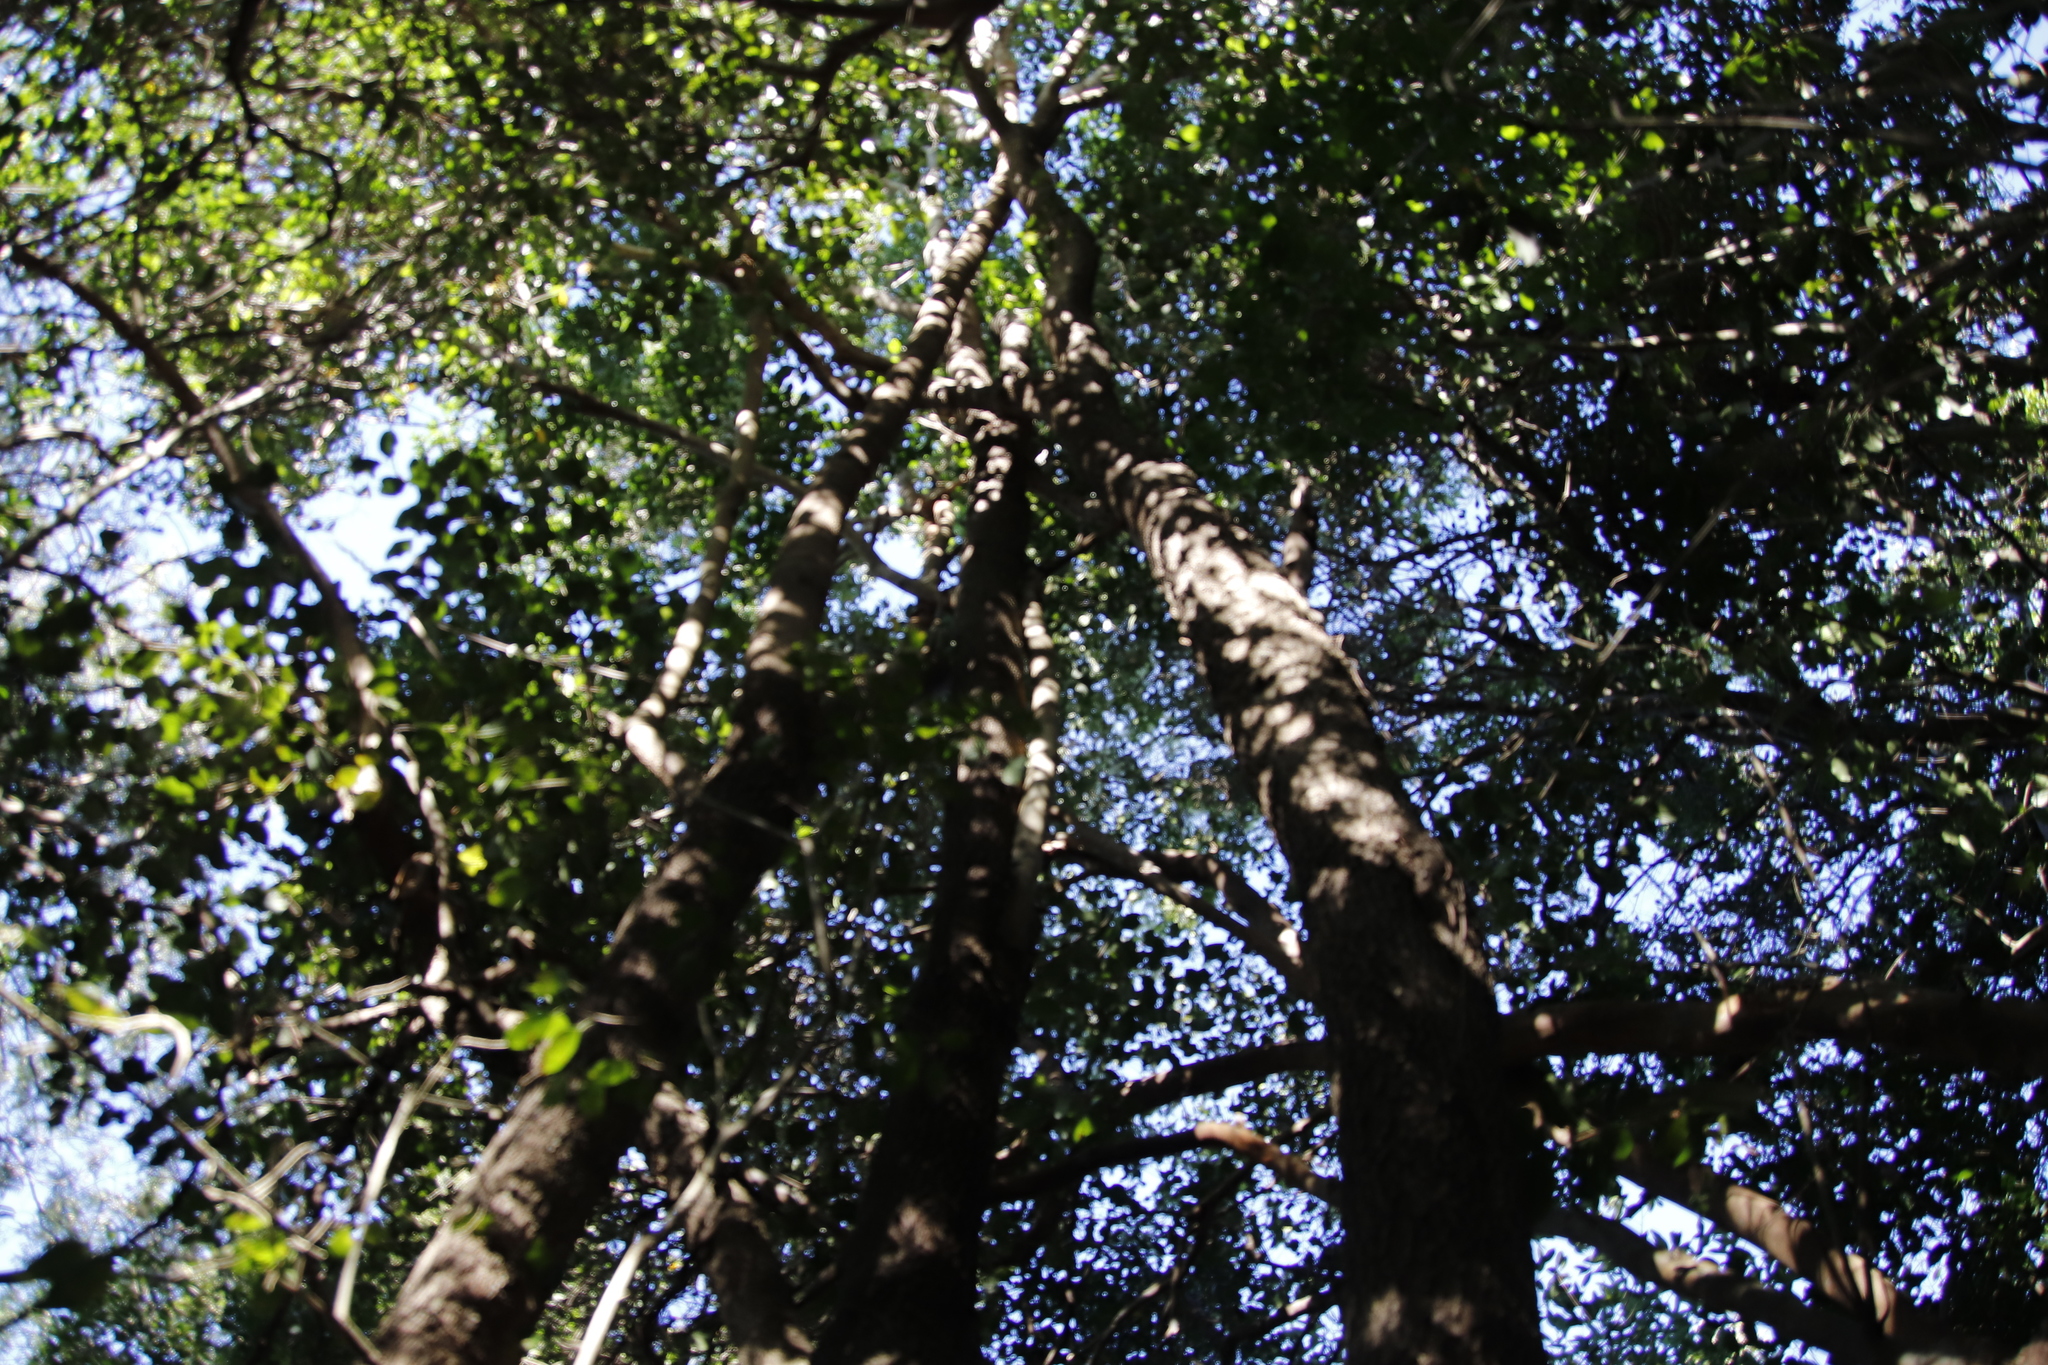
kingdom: Plantae
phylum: Tracheophyta
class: Magnoliopsida
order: Myrtales
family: Penaeaceae
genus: Olinia
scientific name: Olinia ventosa
